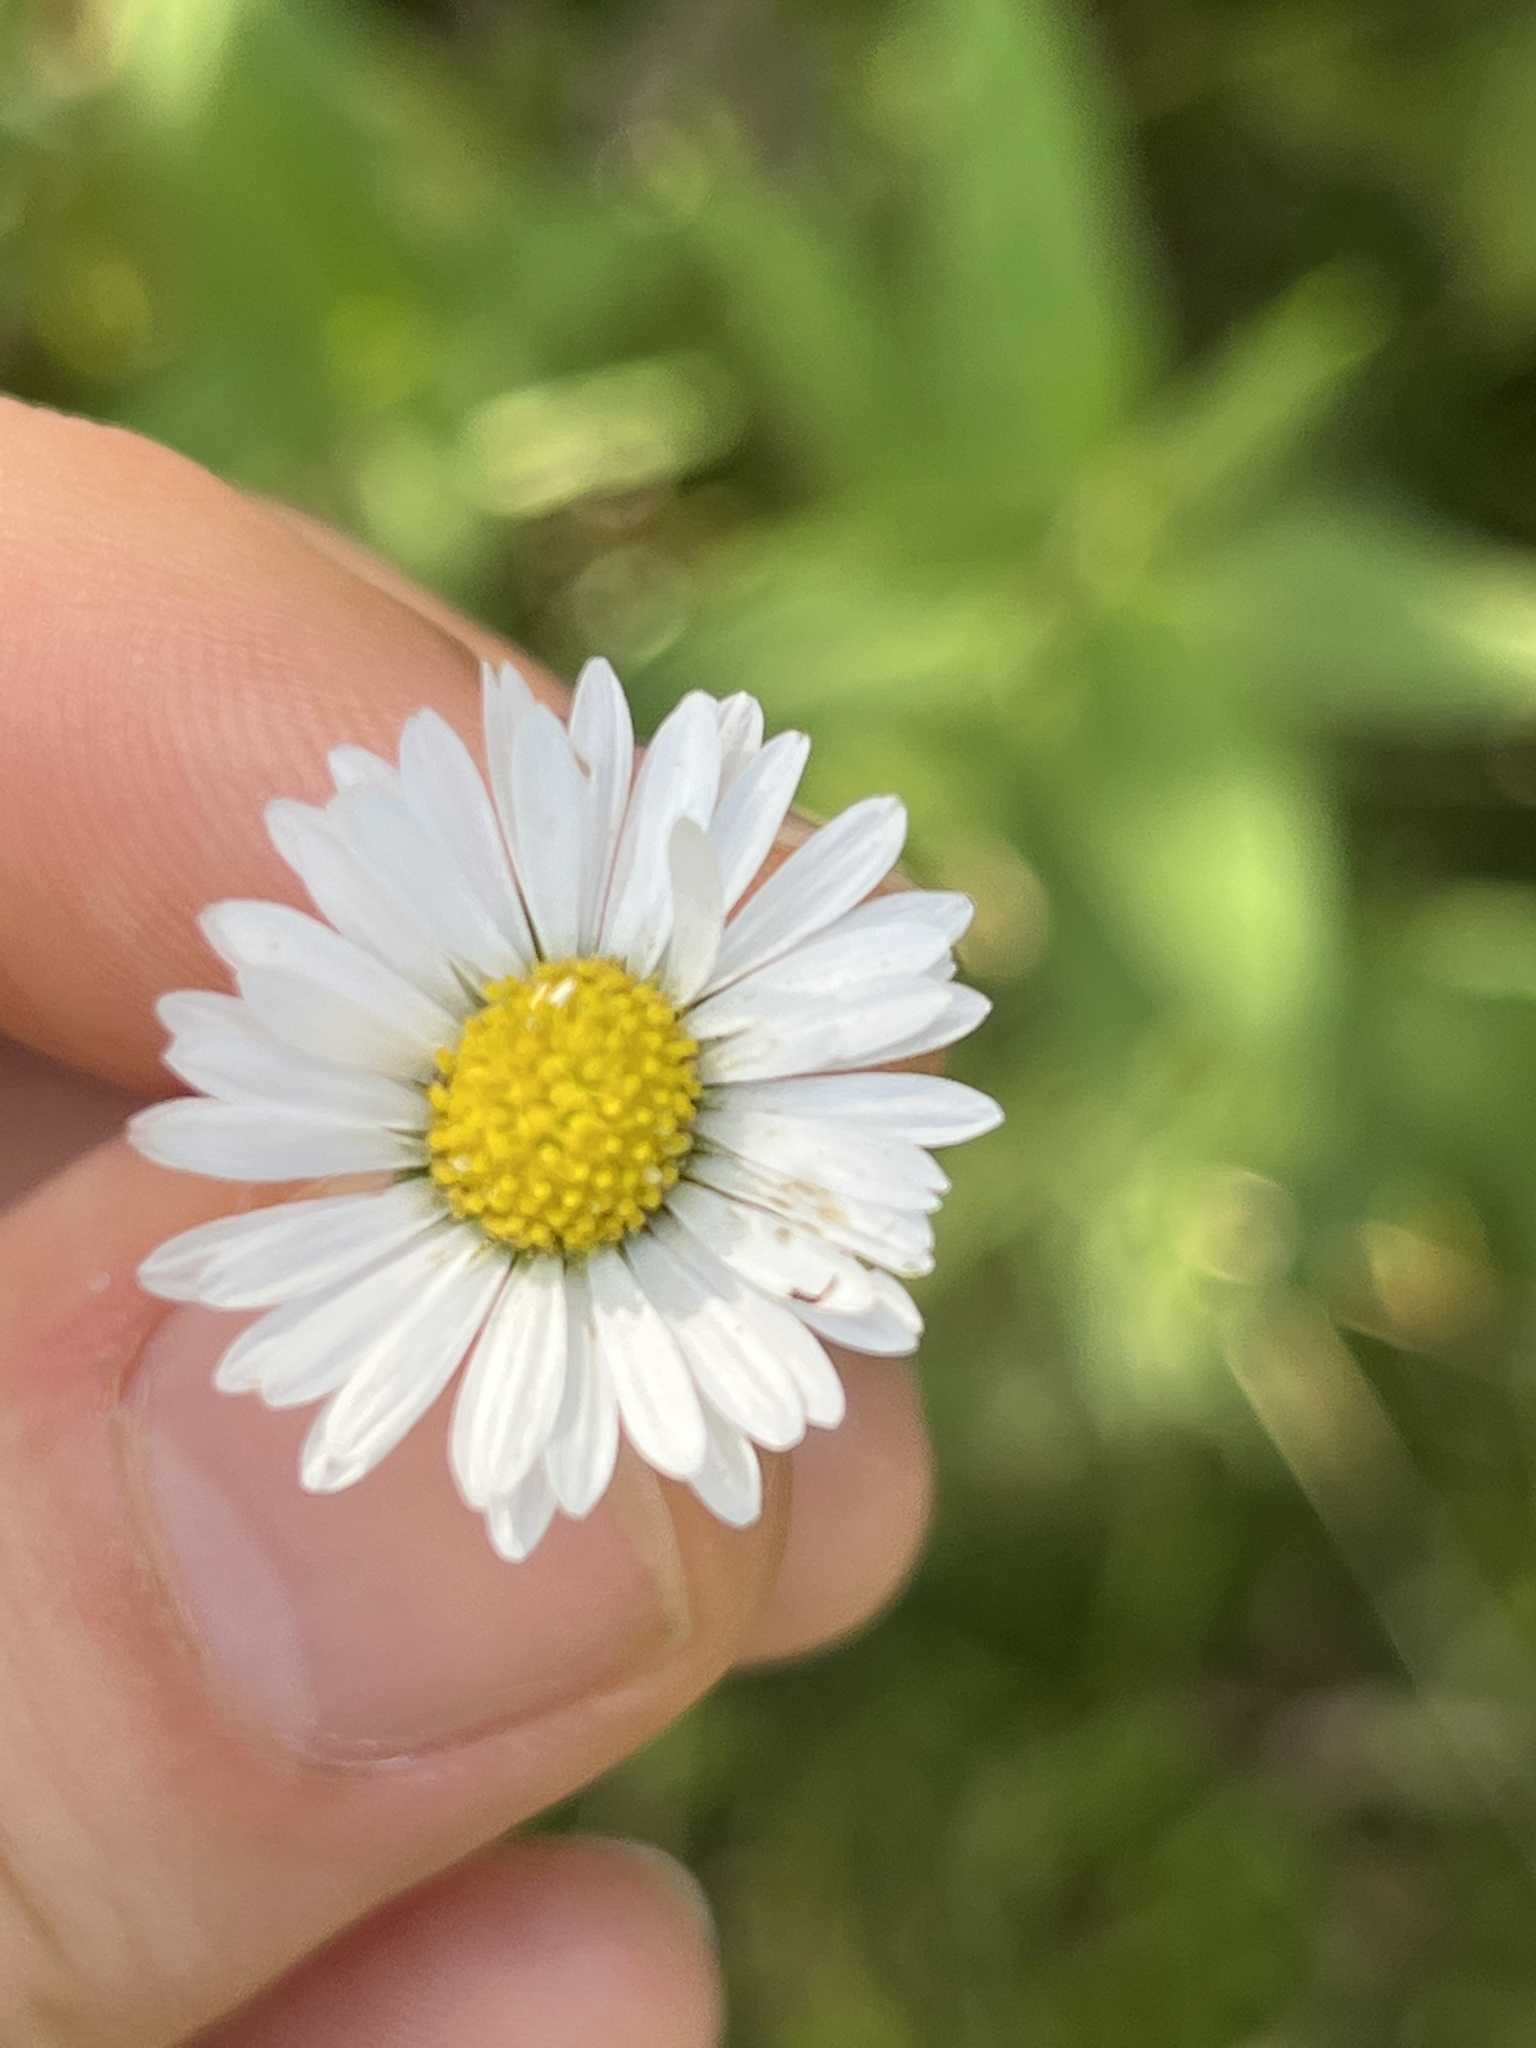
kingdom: Plantae
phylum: Tracheophyta
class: Magnoliopsida
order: Asterales
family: Asteraceae
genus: Bellis
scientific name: Bellis perennis
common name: Lawndaisy
